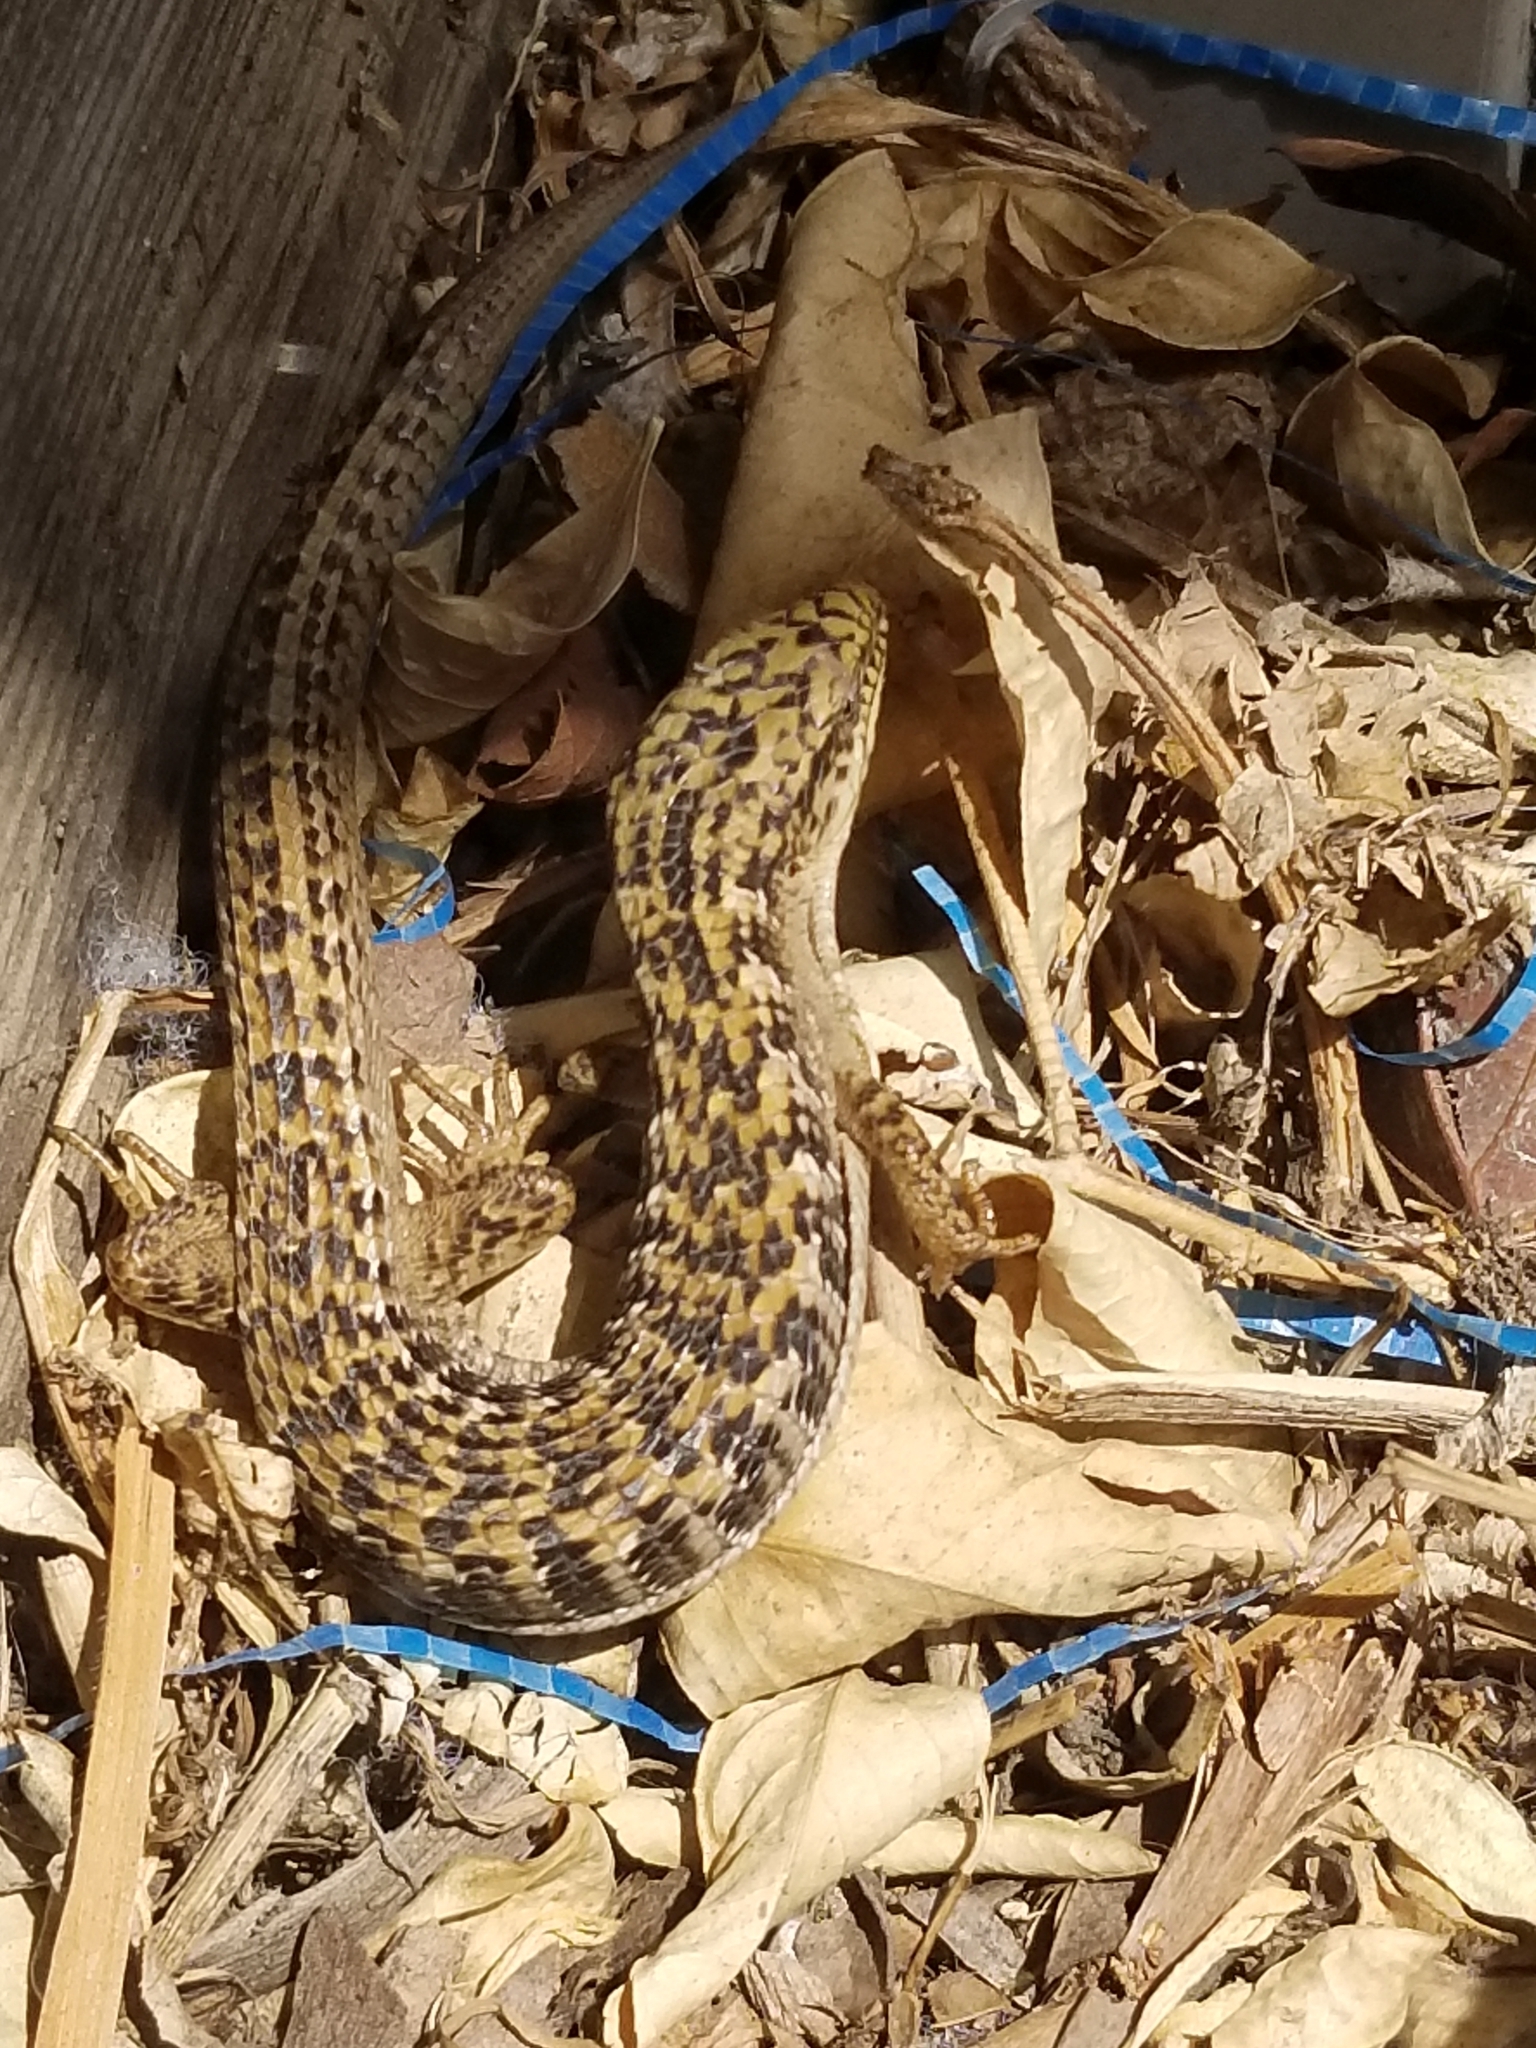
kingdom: Animalia
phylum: Chordata
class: Squamata
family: Anguidae
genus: Elgaria
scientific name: Elgaria multicarinata
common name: Southern alligator lizard
